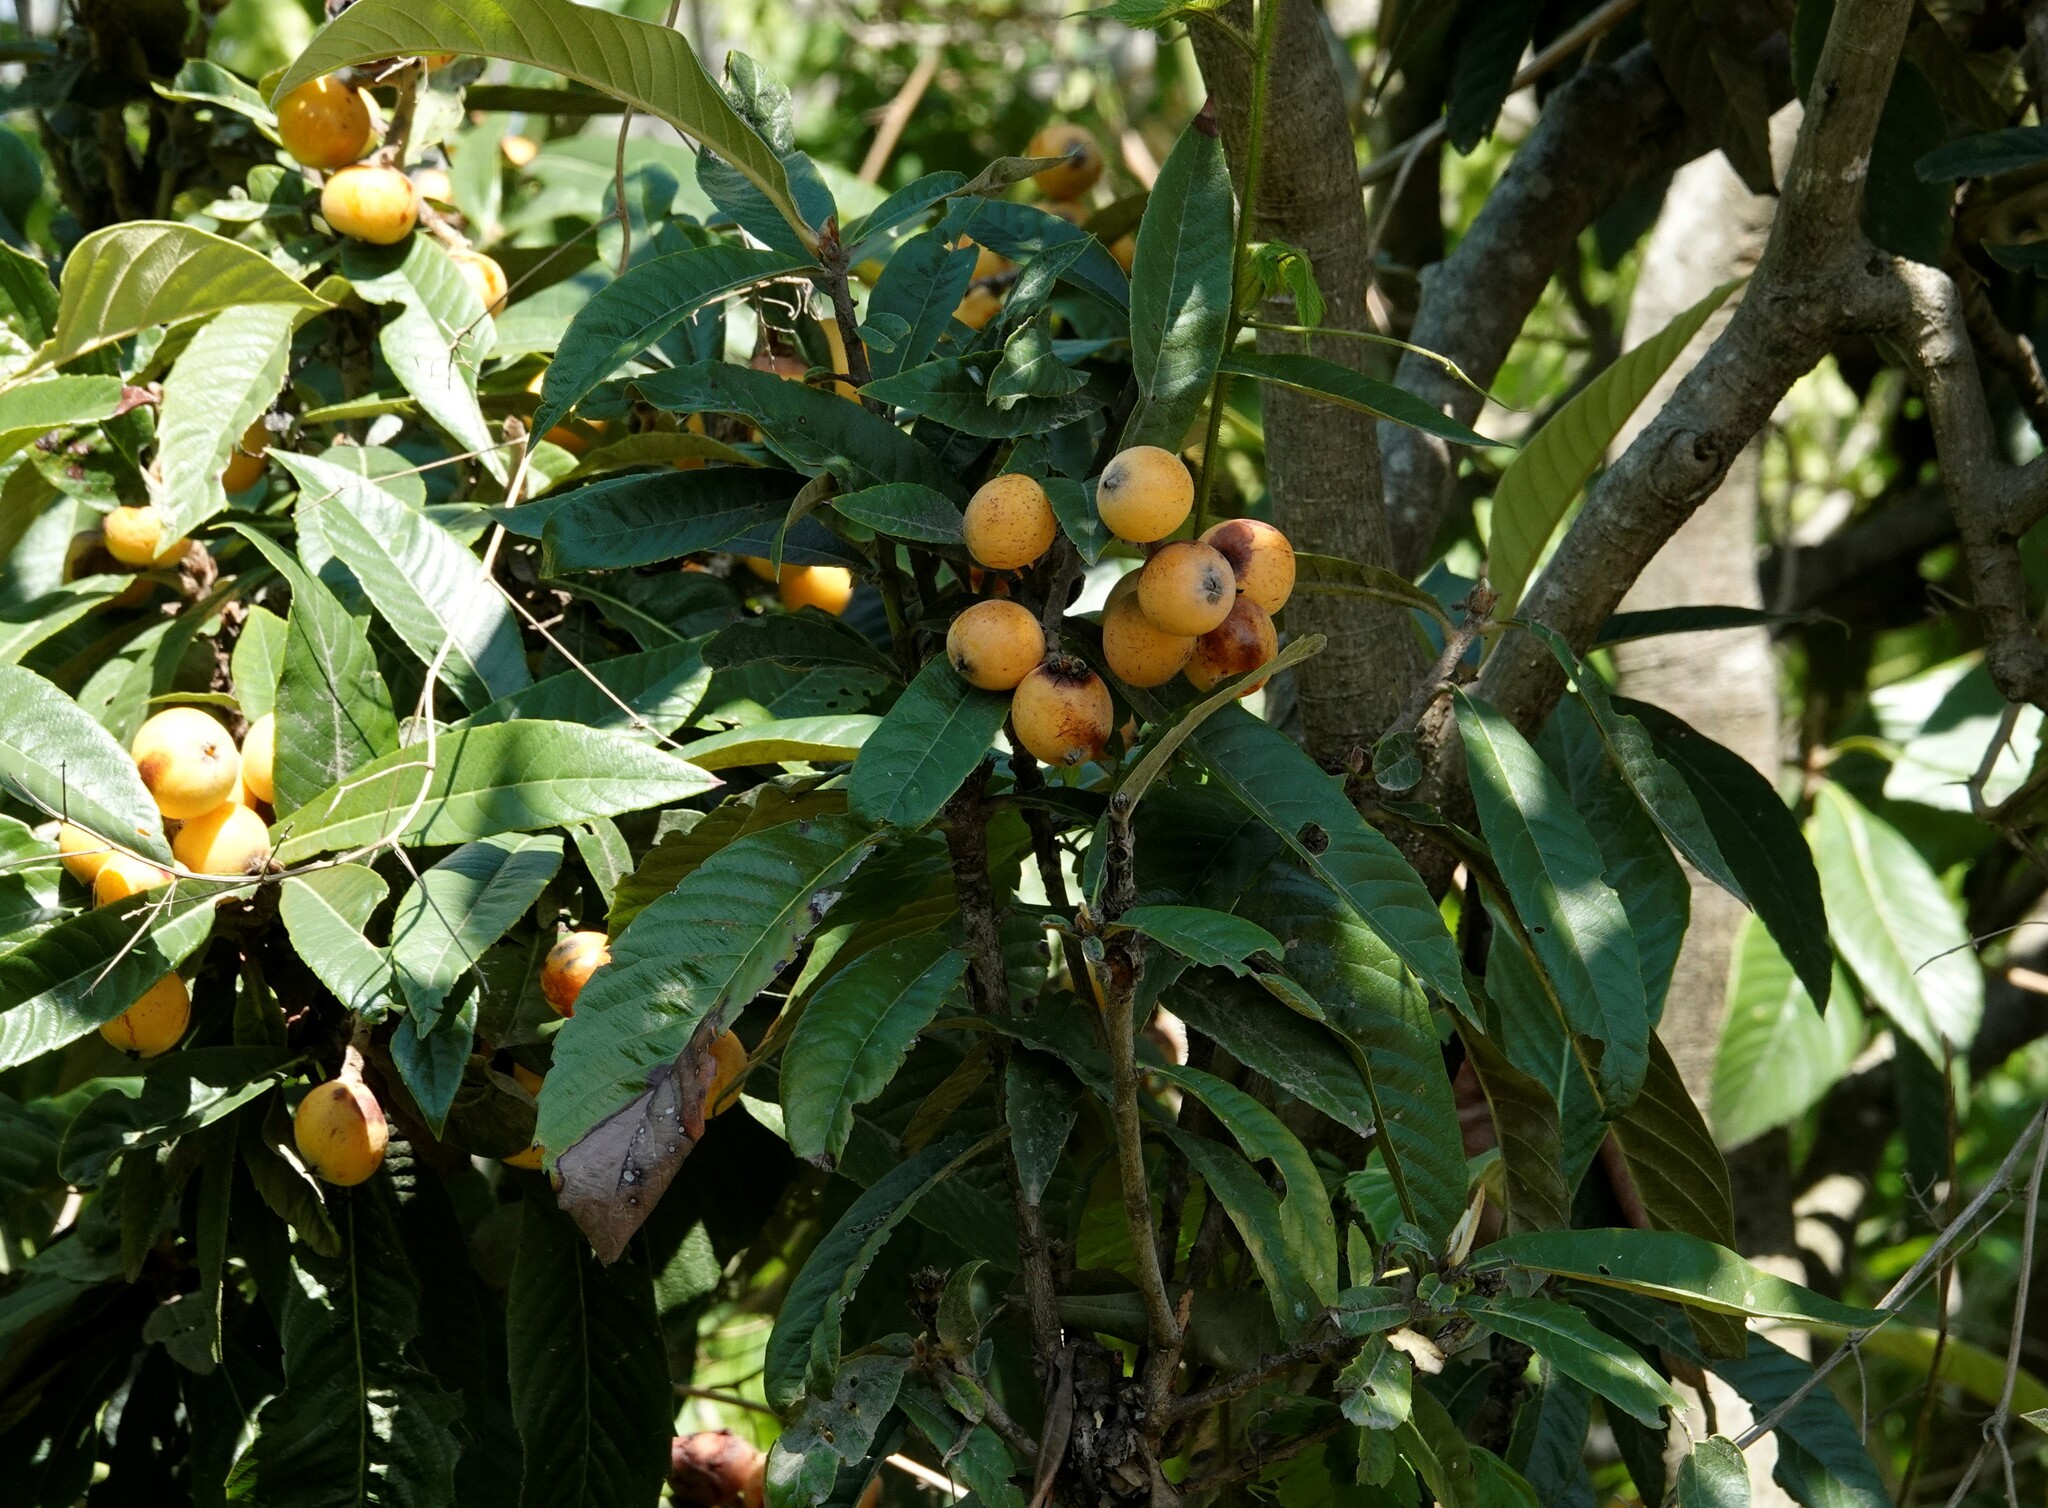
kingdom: Plantae
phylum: Tracheophyta
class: Magnoliopsida
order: Rosales
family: Rosaceae
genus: Rhaphiolepis
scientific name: Rhaphiolepis bibas
